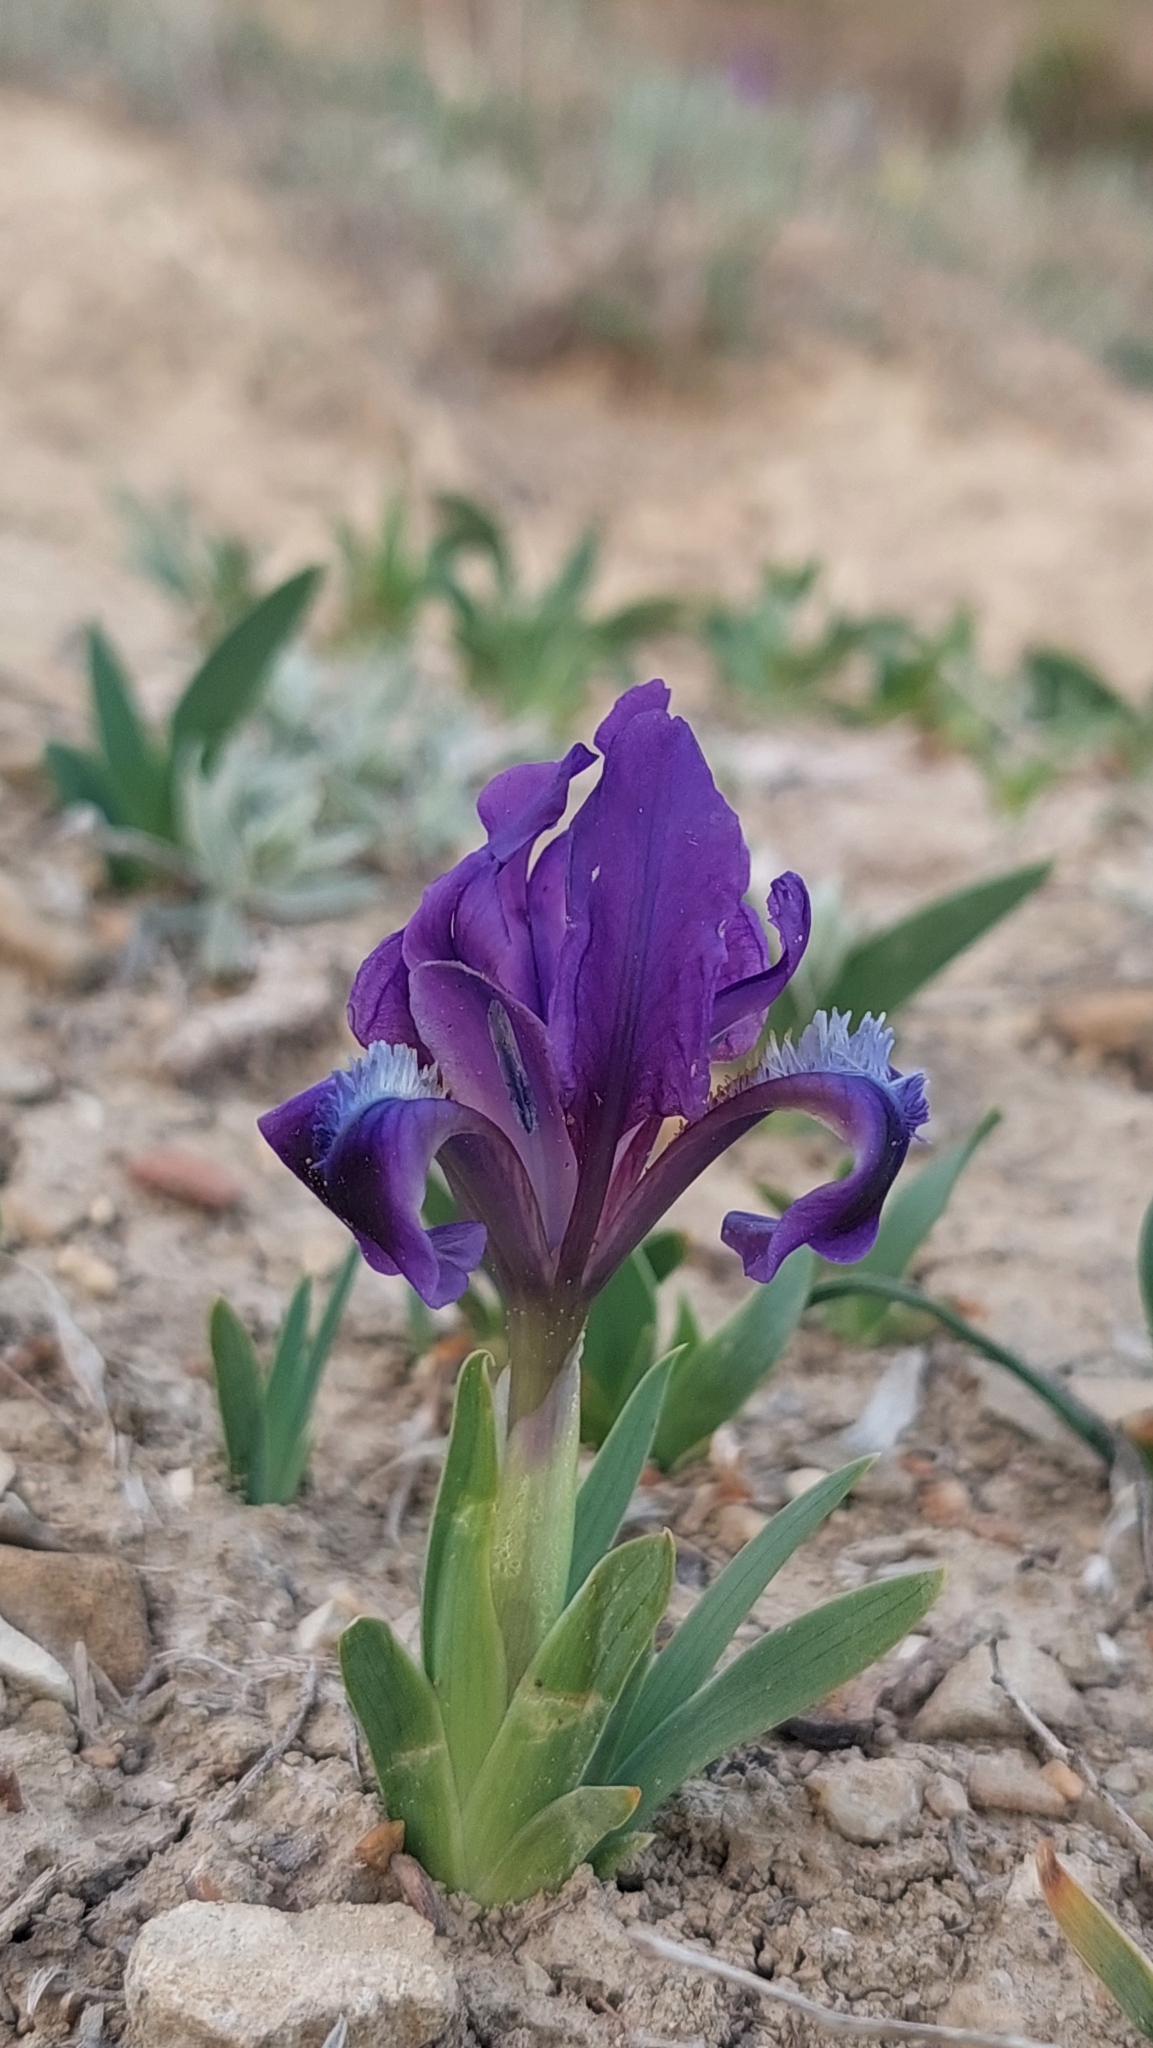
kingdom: Plantae
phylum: Tracheophyta
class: Liliopsida
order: Asparagales
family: Iridaceae
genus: Iris
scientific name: Iris pumila
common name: Dwarf iris
